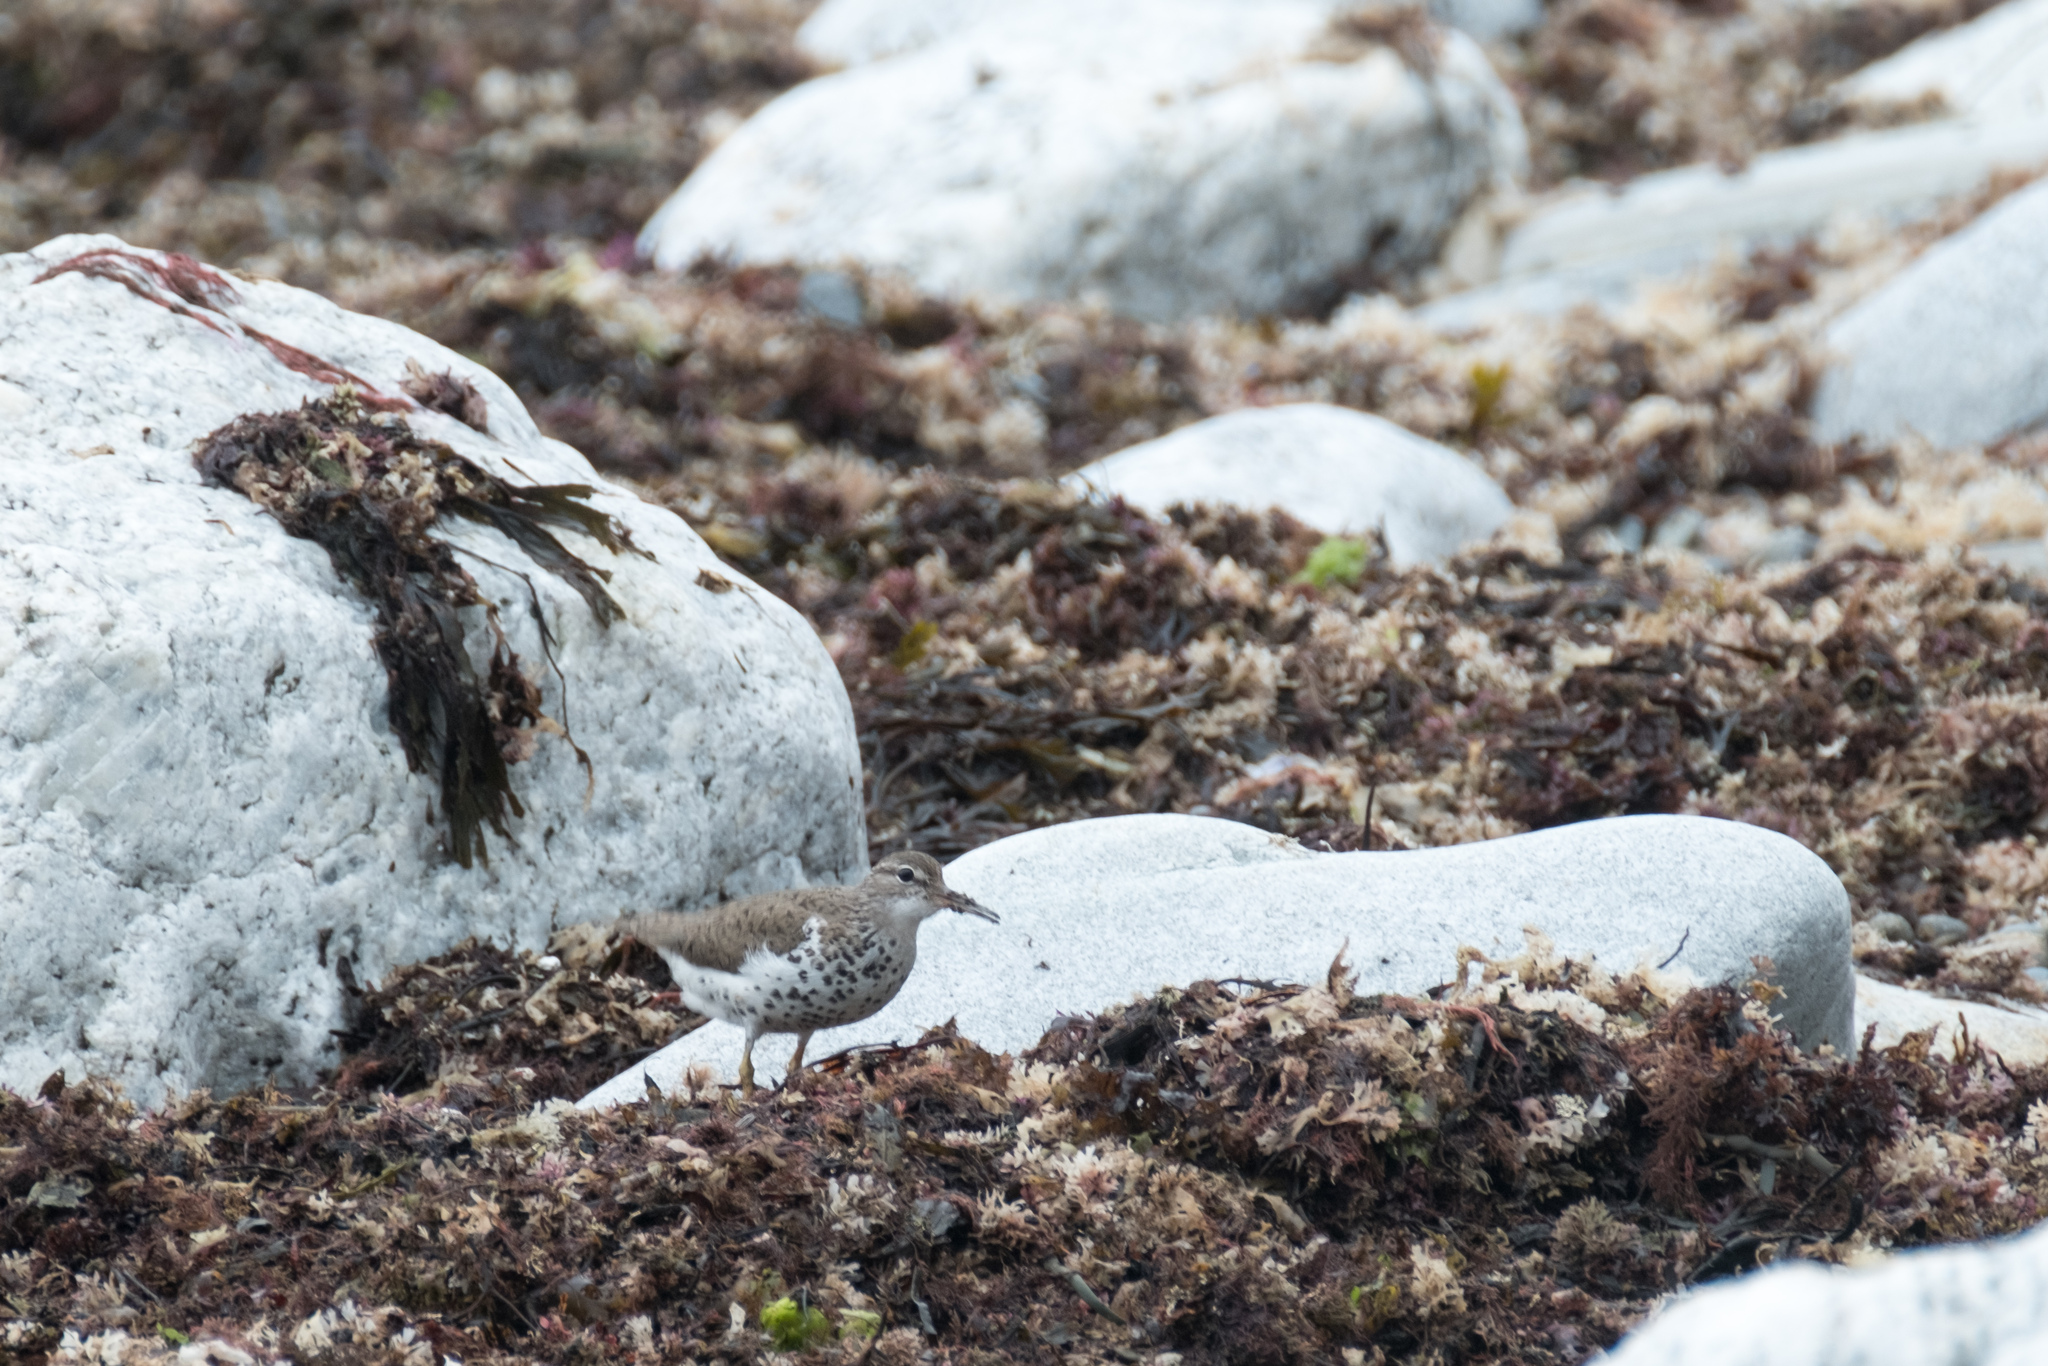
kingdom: Animalia
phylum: Chordata
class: Aves
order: Charadriiformes
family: Scolopacidae
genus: Actitis
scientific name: Actitis macularius
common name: Spotted sandpiper
